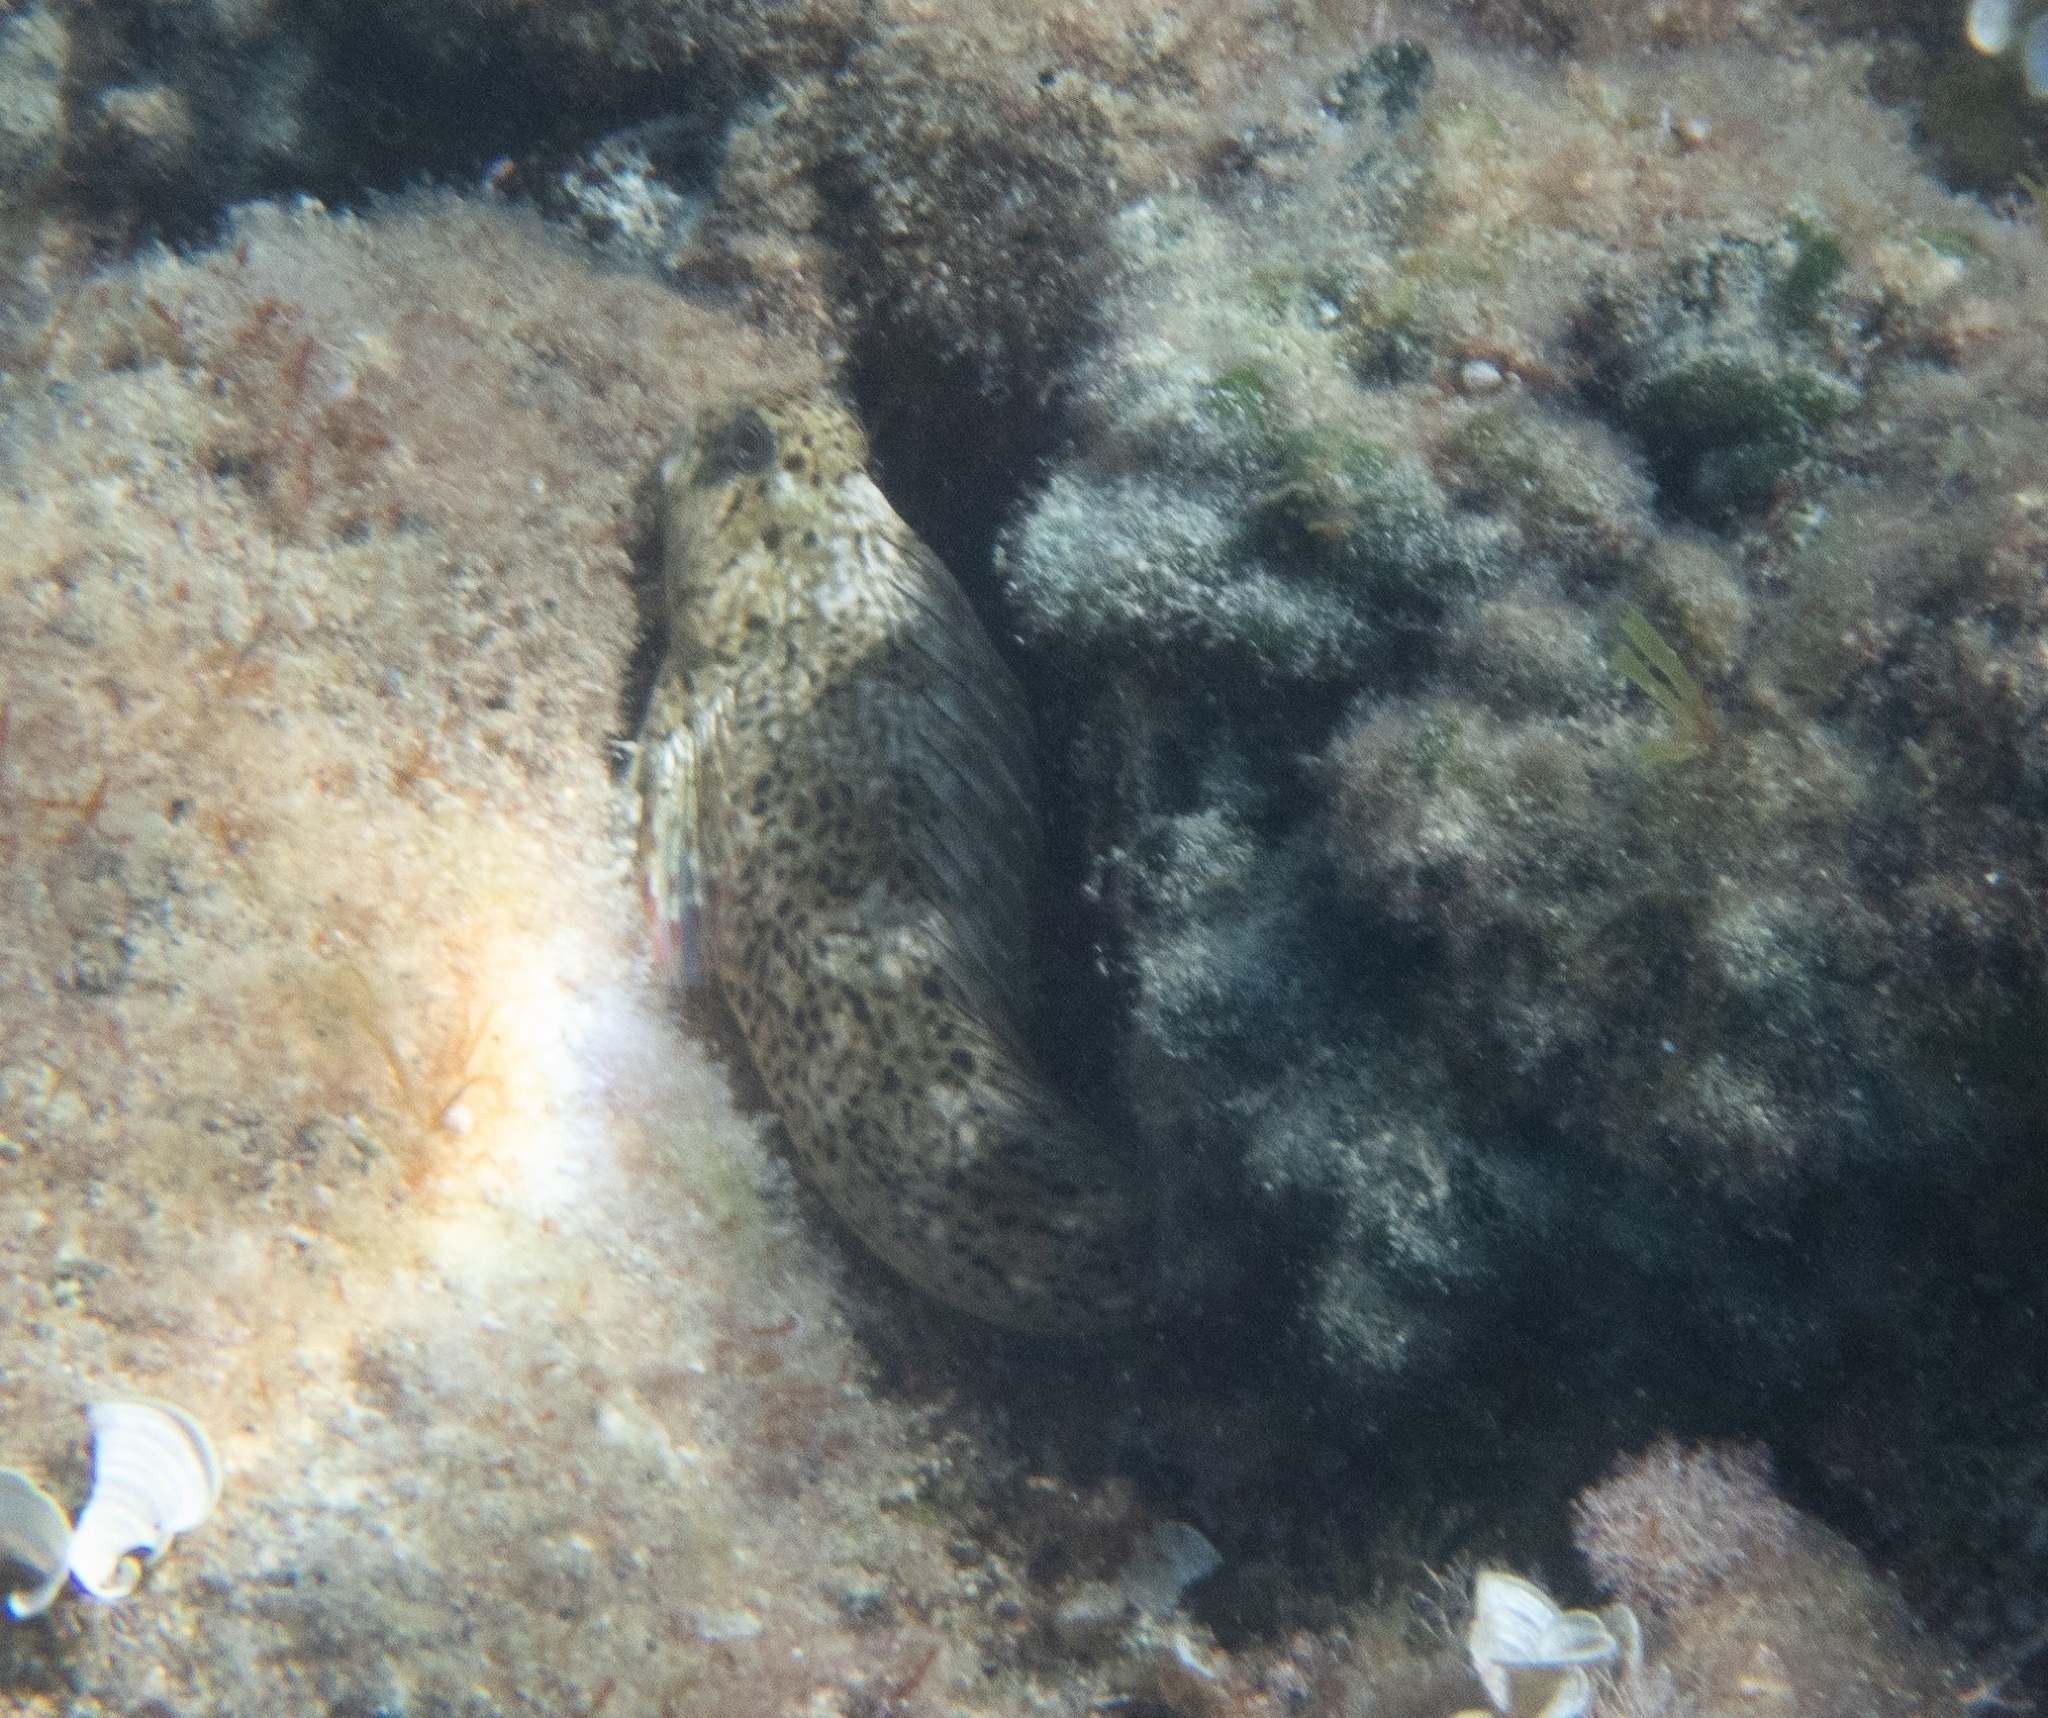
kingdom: Animalia
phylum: Chordata
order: Perciformes
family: Blenniidae
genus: Parablennius
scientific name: Parablennius sanguinolentus
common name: Black sea blenny
